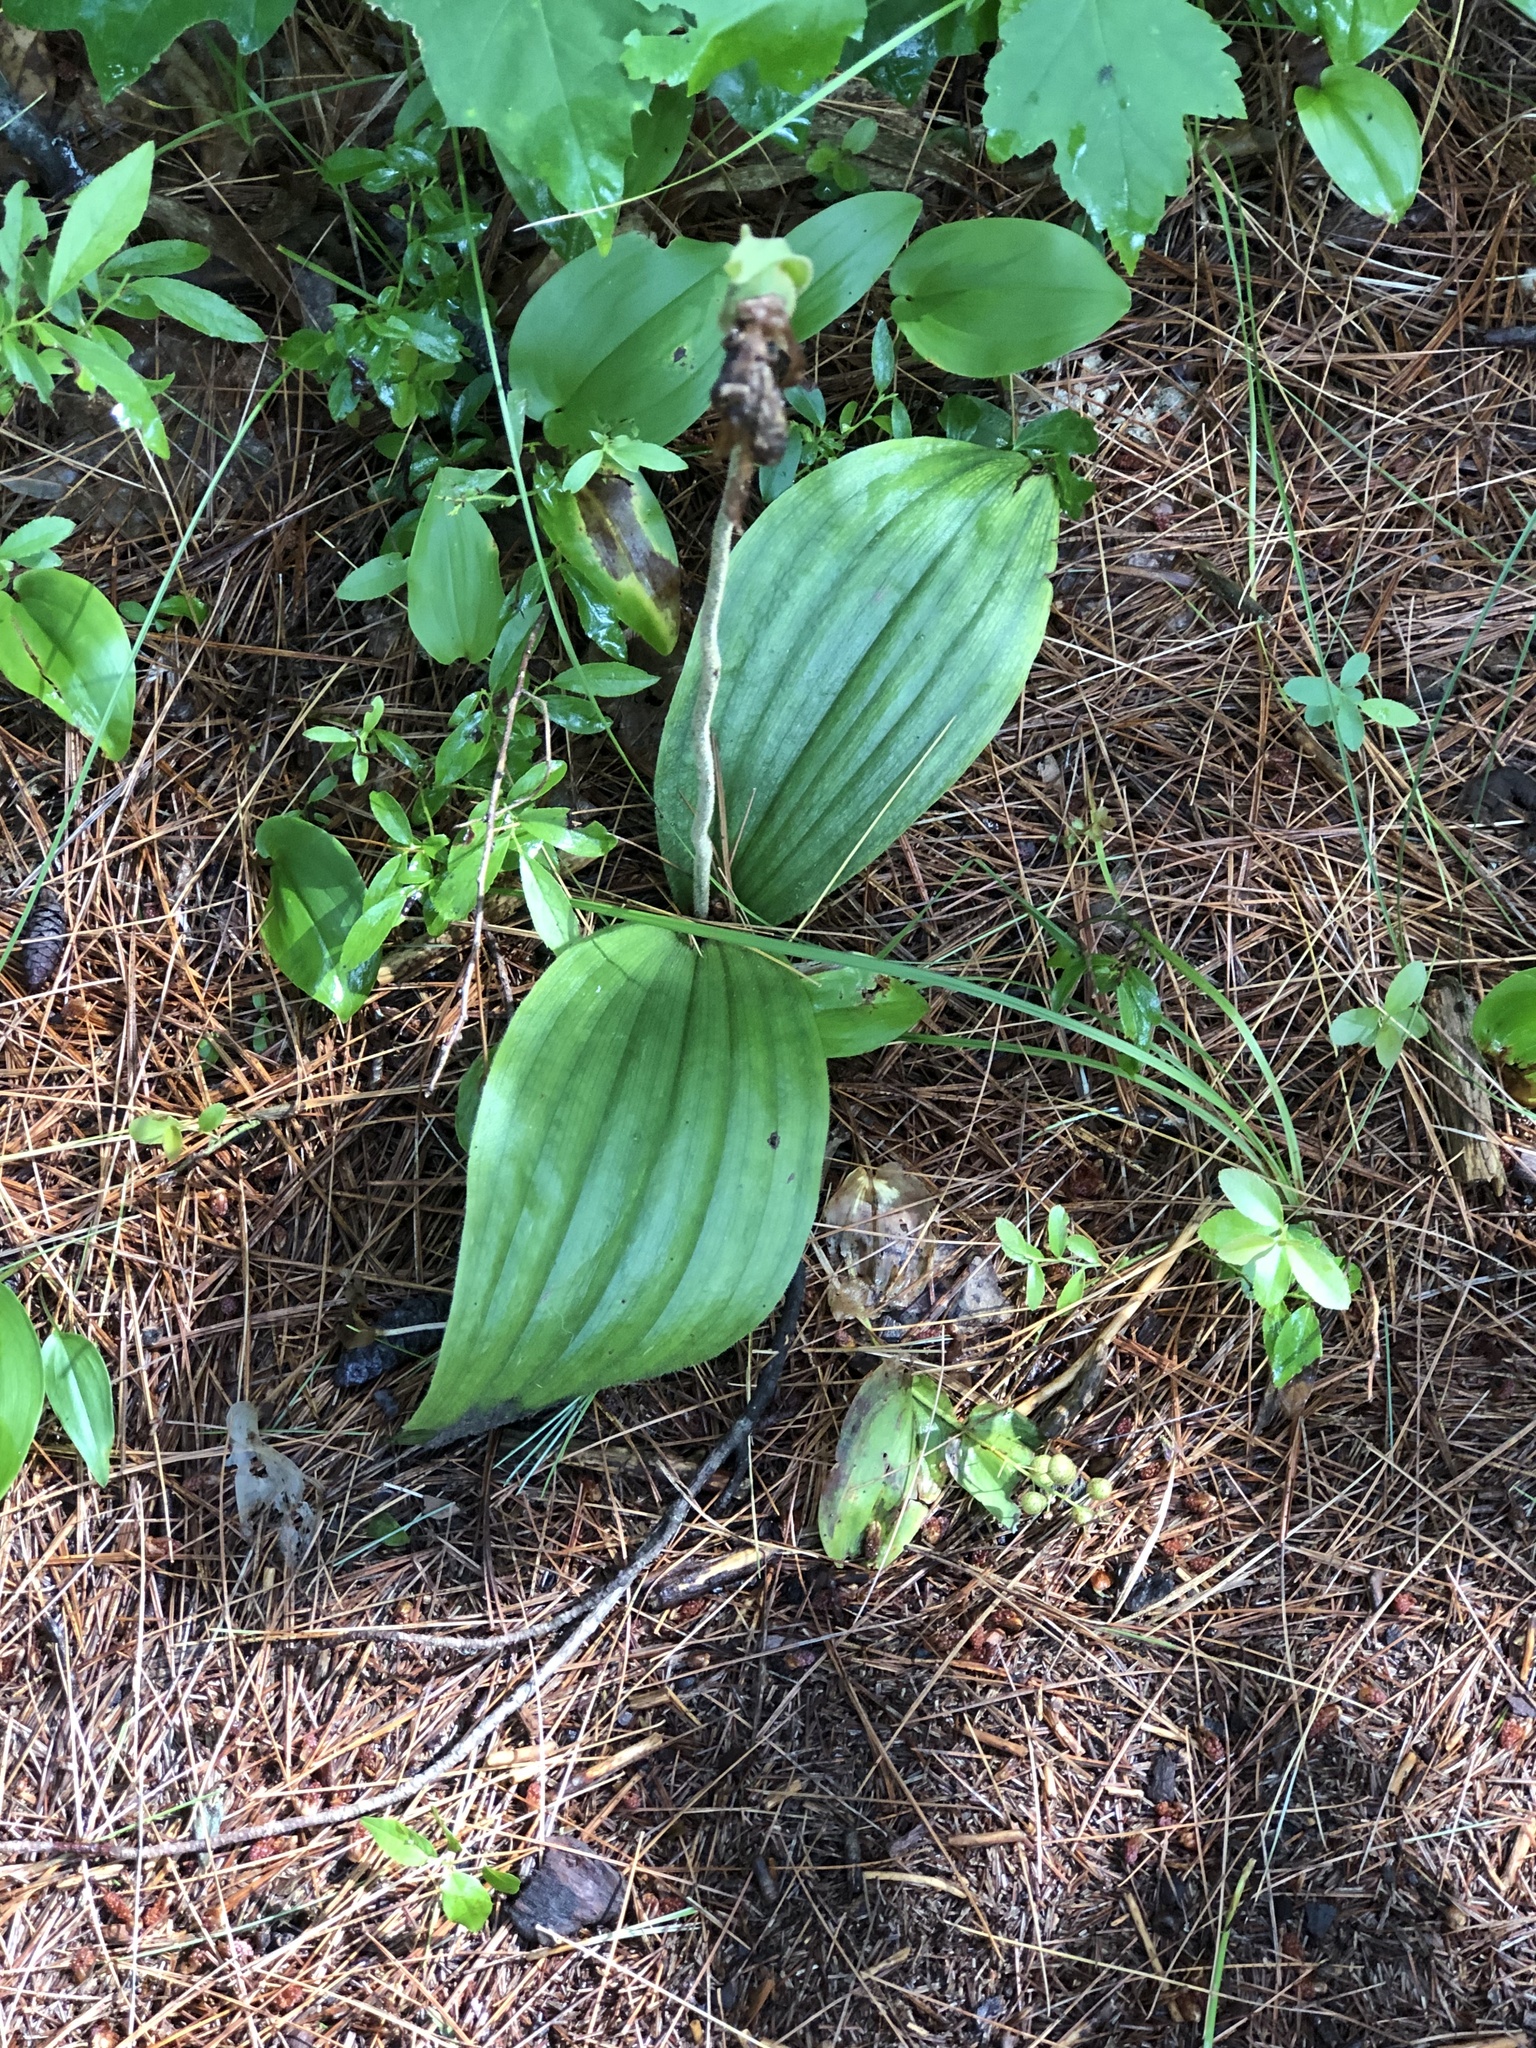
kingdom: Plantae
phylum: Tracheophyta
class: Liliopsida
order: Asparagales
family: Orchidaceae
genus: Cypripedium
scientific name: Cypripedium acaule
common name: Pink lady's-slipper
